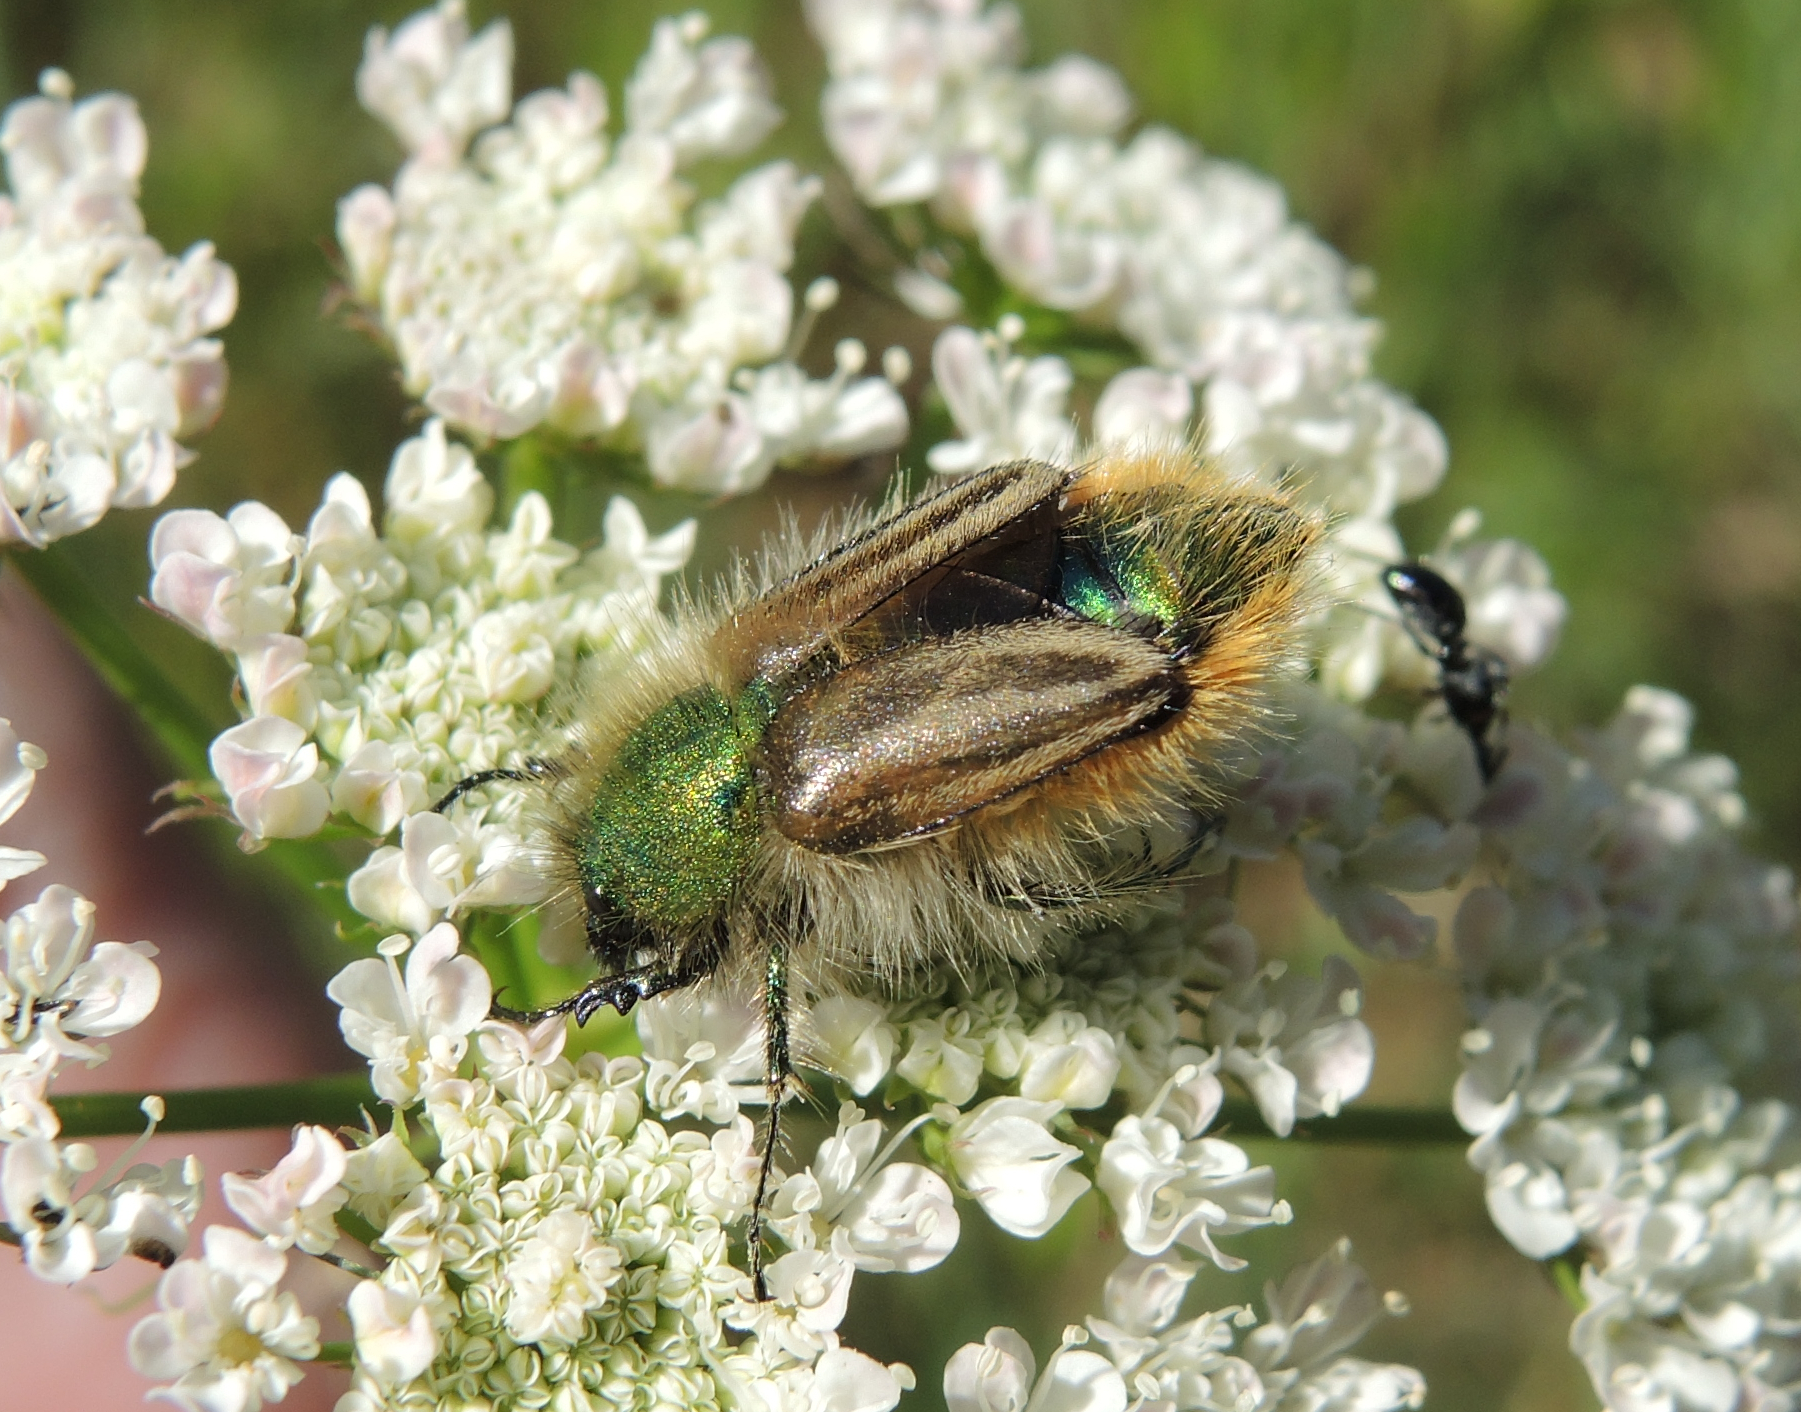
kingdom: Animalia
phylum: Arthropoda
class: Insecta
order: Coleoptera
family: Glaphyridae
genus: Eulasia
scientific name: Eulasia pareyssei
